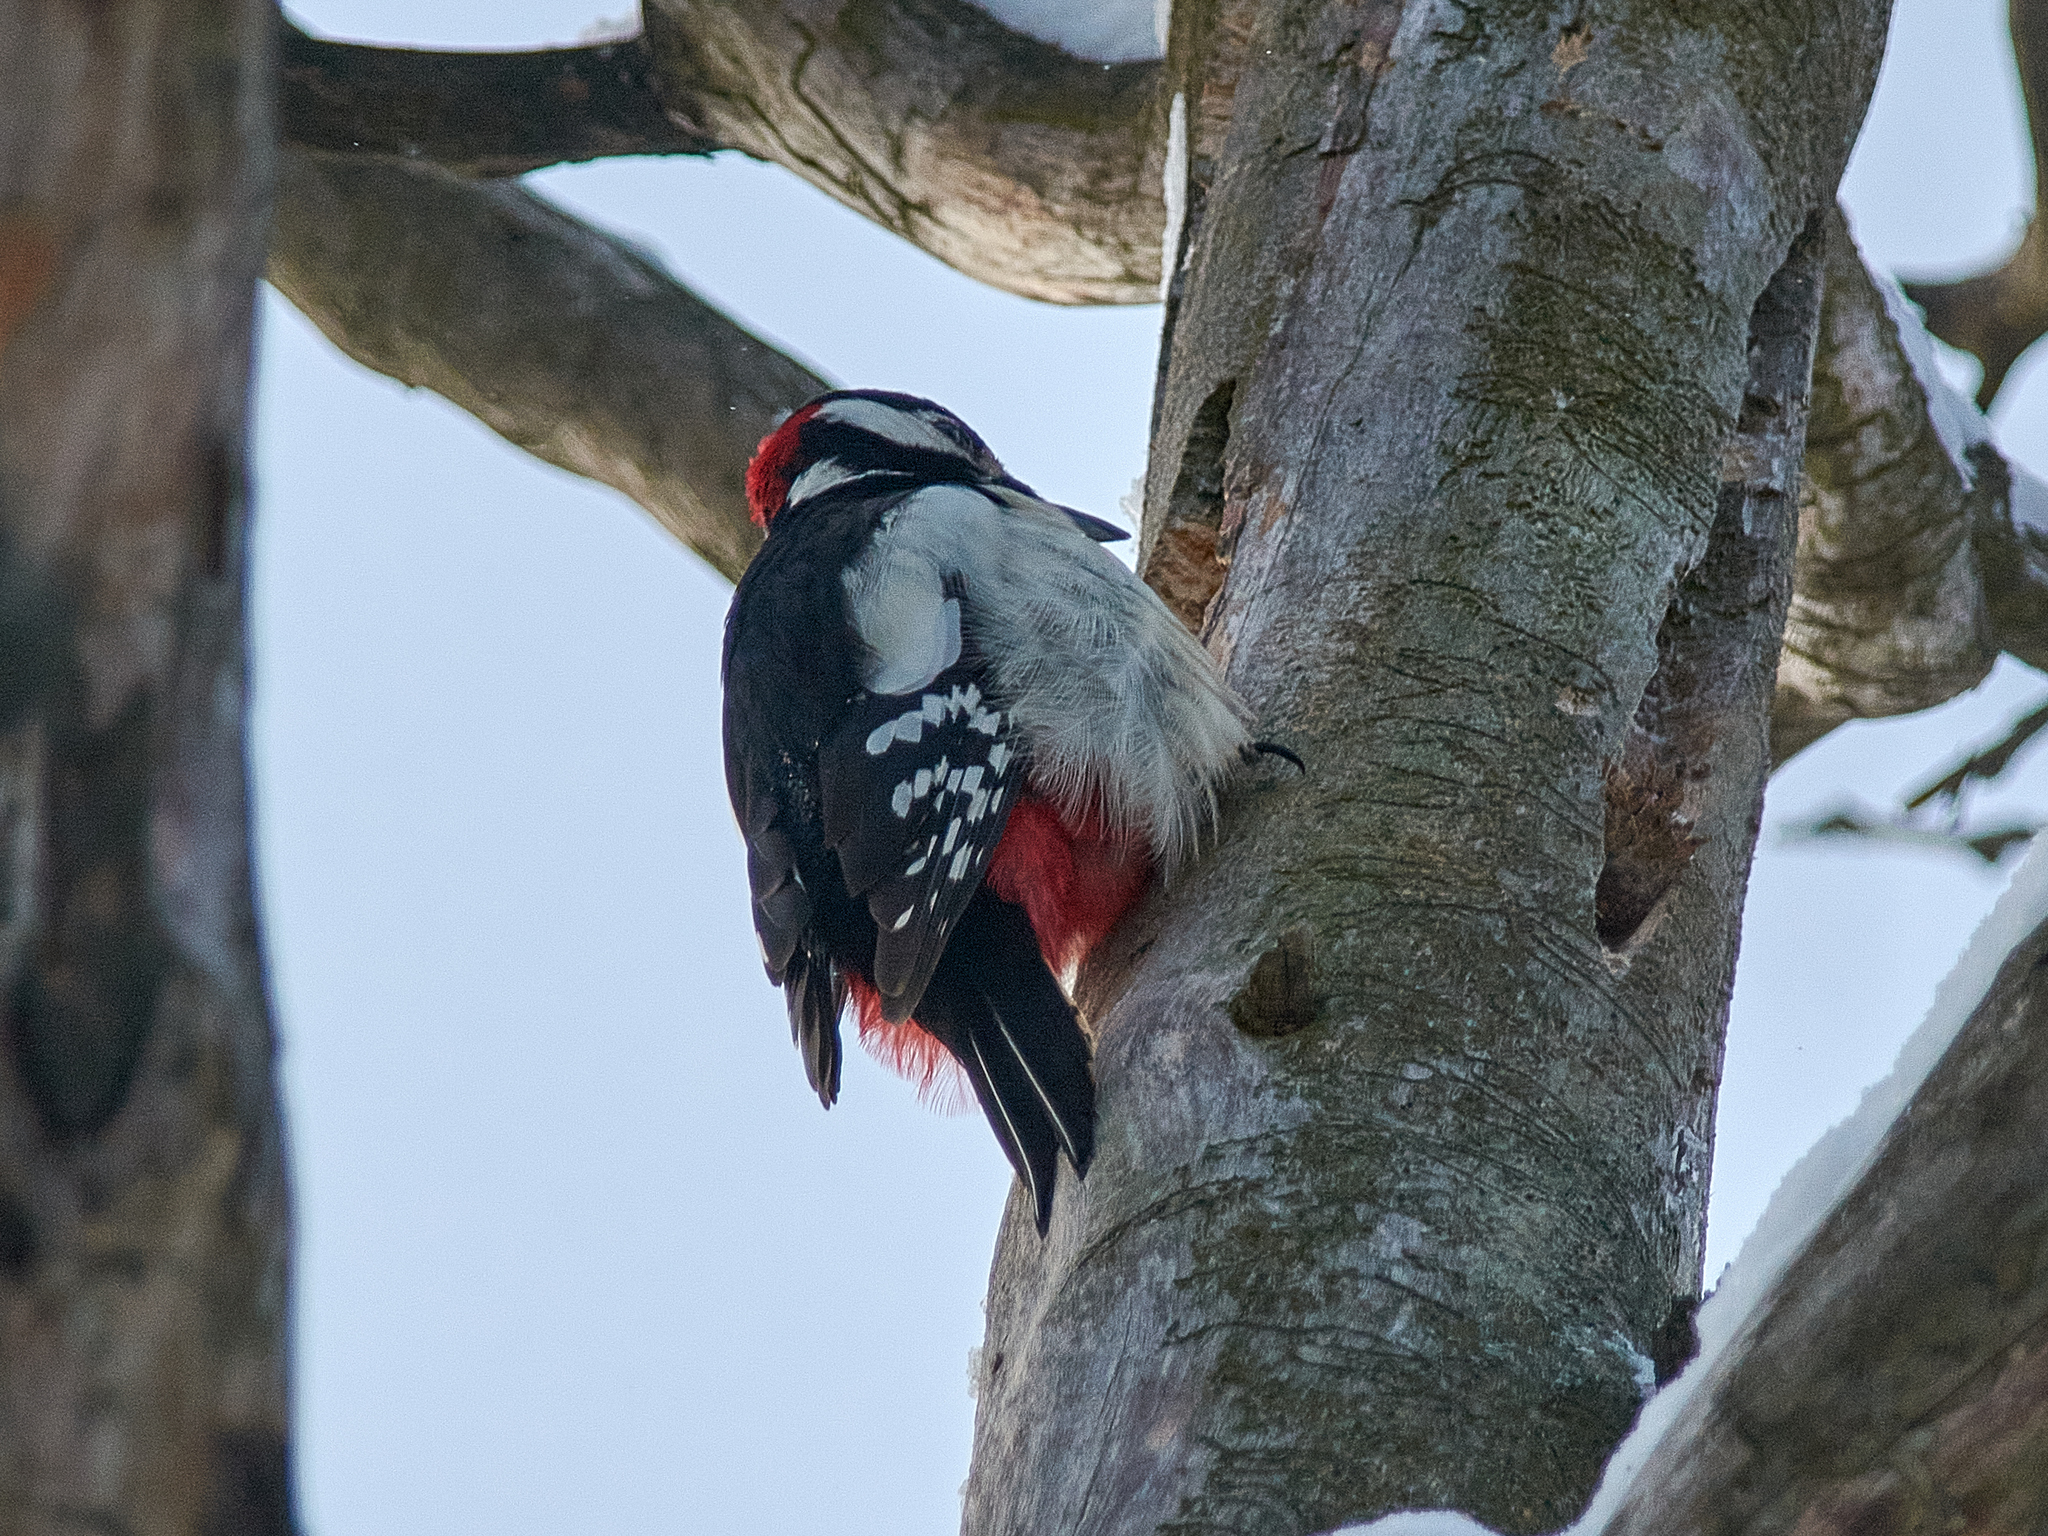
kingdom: Animalia
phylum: Chordata
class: Aves
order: Piciformes
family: Picidae
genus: Dendrocopos
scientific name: Dendrocopos major
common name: Great spotted woodpecker
